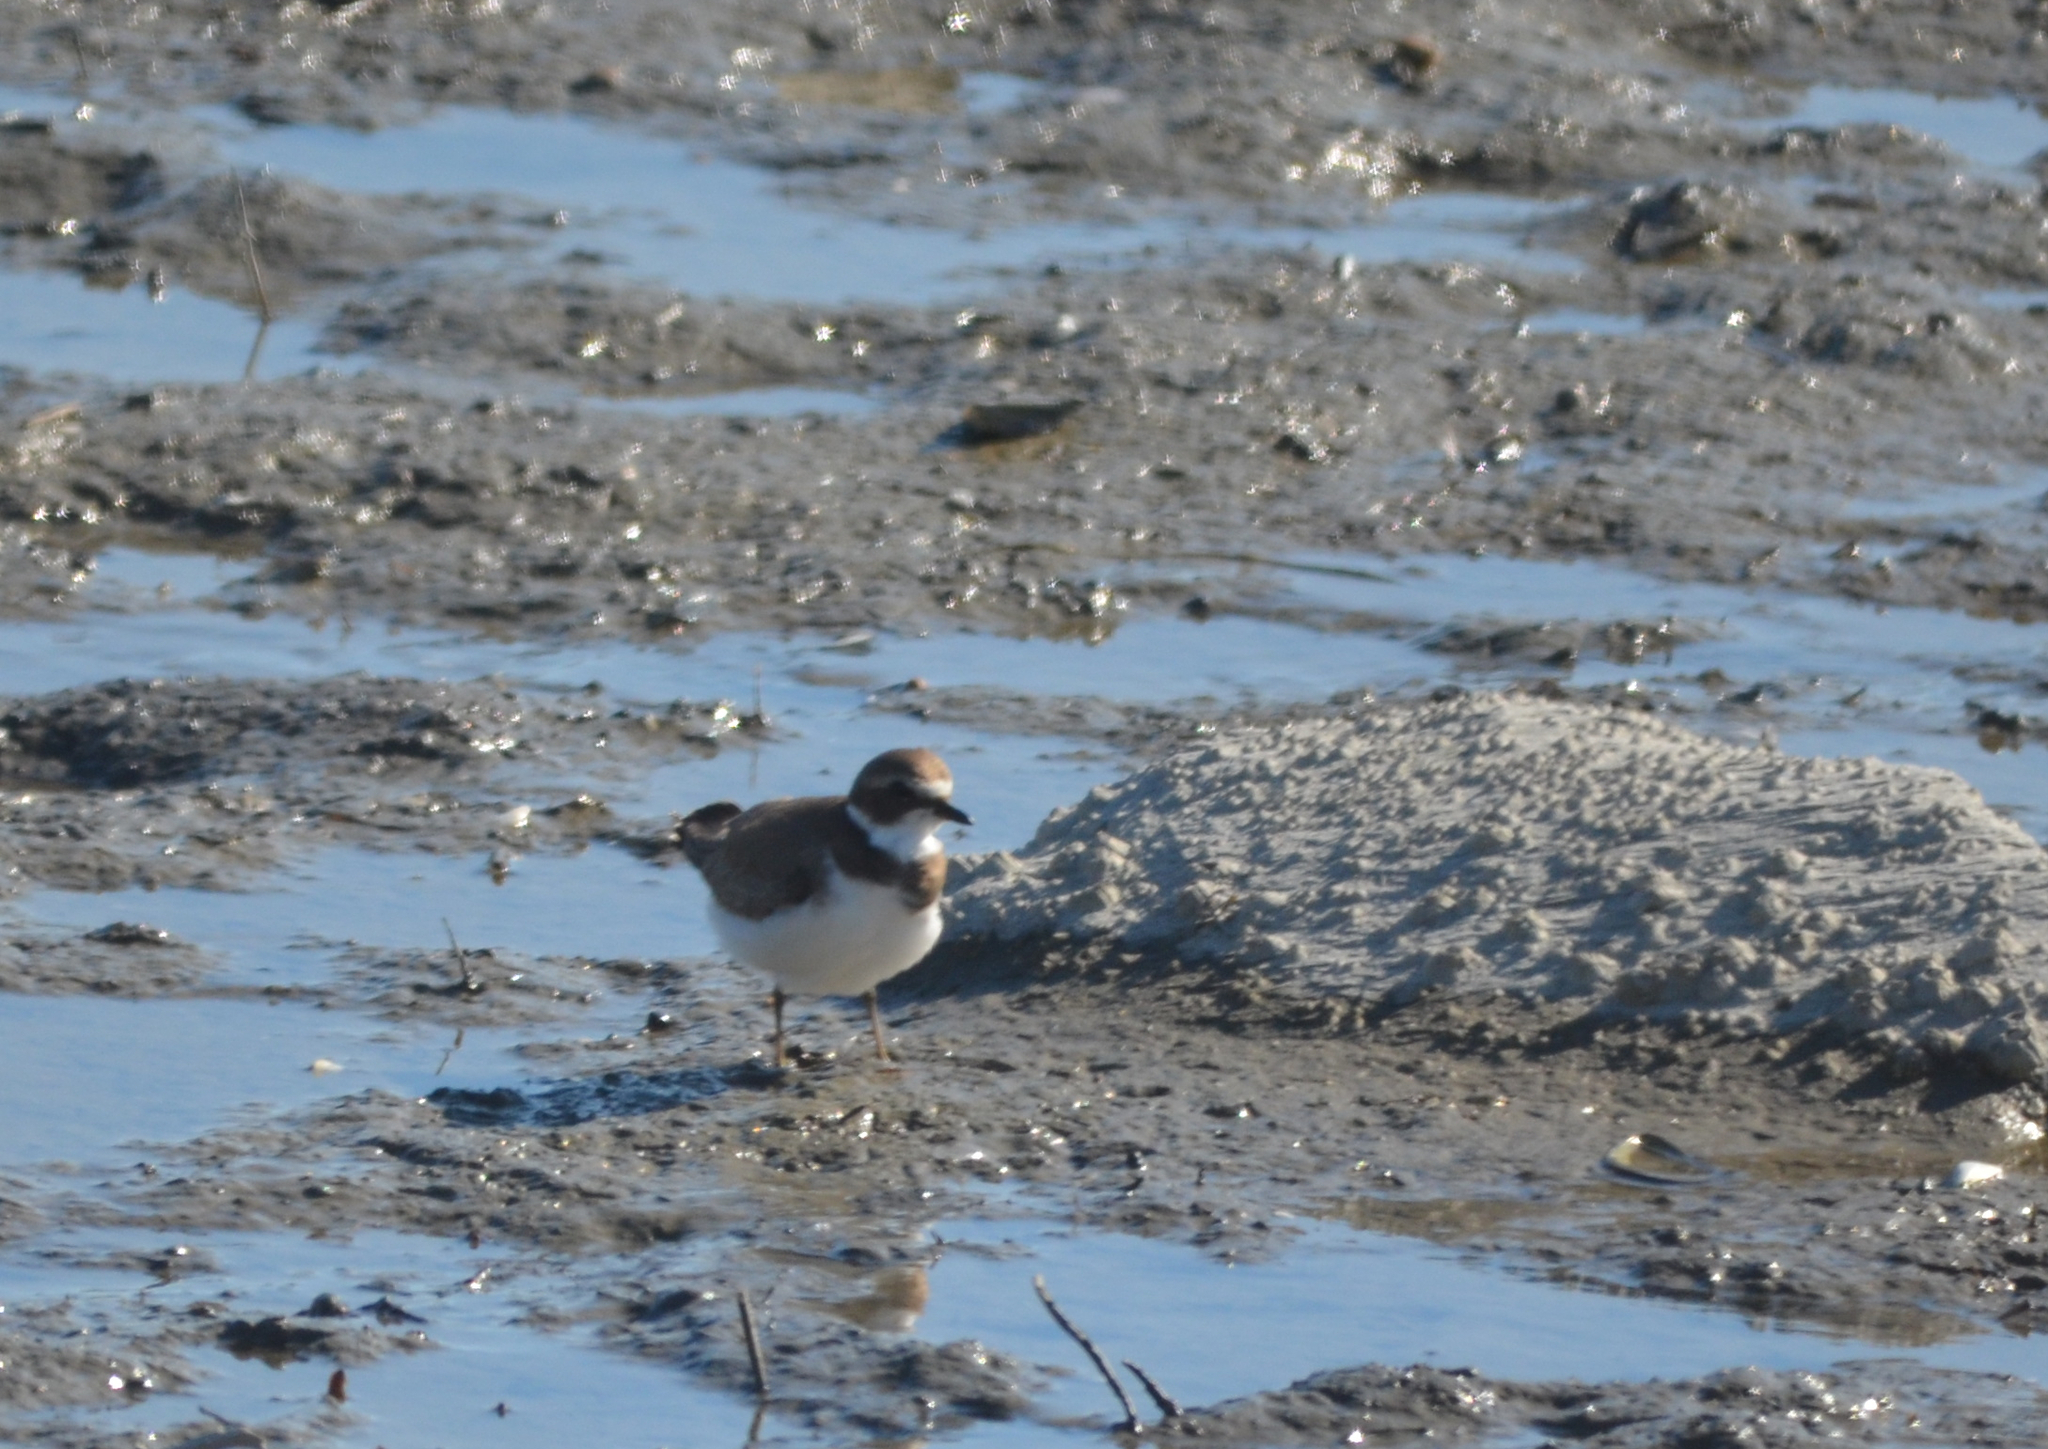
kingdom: Animalia
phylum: Chordata
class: Aves
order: Charadriiformes
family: Charadriidae
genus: Charadrius
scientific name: Charadrius semipalmatus
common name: Semipalmated plover
